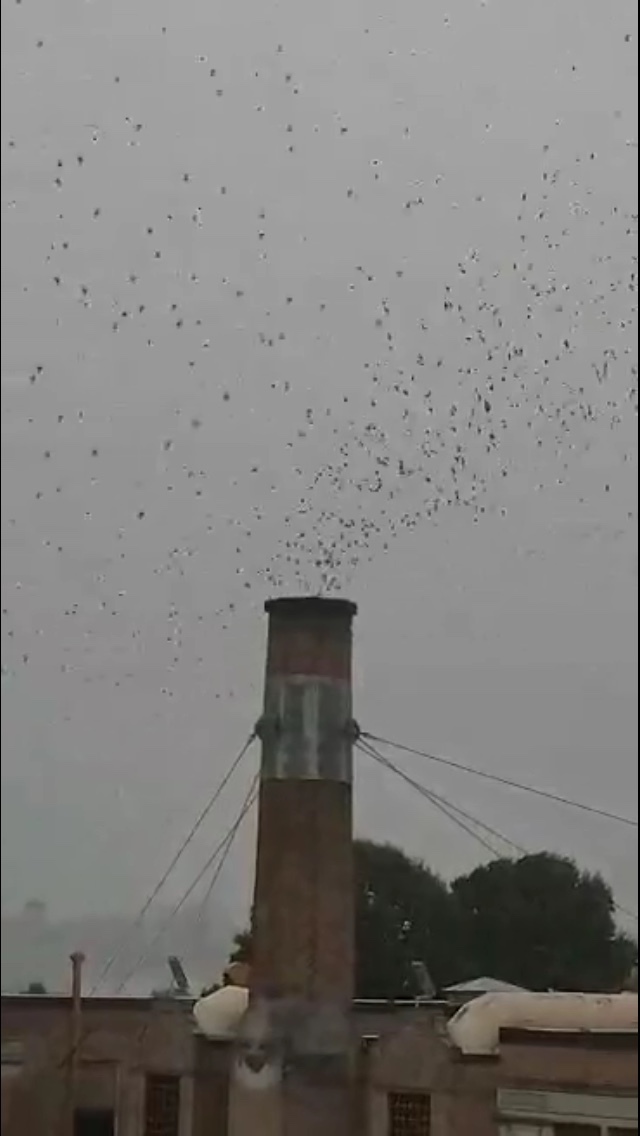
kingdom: Animalia
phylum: Chordata
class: Aves
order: Apodiformes
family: Apodidae
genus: Chaetura
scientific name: Chaetura vauxi
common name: Vaux's swift
